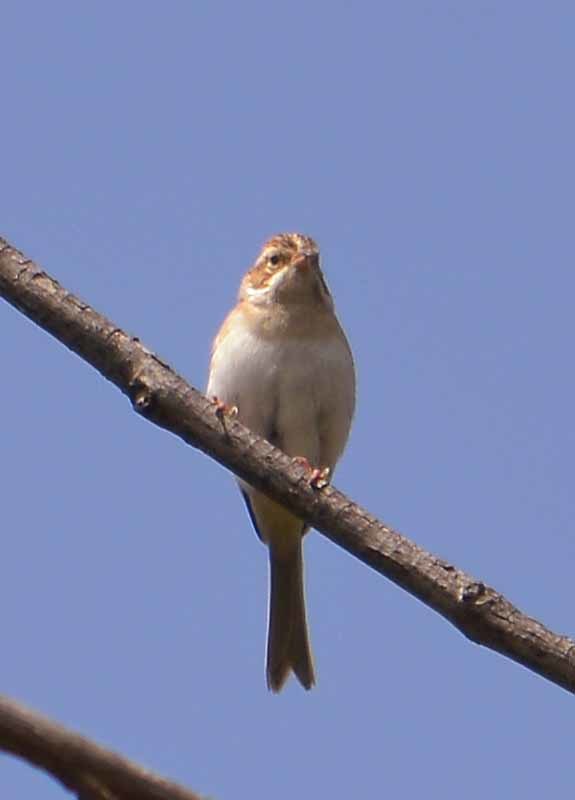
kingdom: Animalia
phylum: Chordata
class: Aves
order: Passeriformes
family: Passerellidae
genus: Spizella
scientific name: Spizella pallida
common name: Clay-colored sparrow
